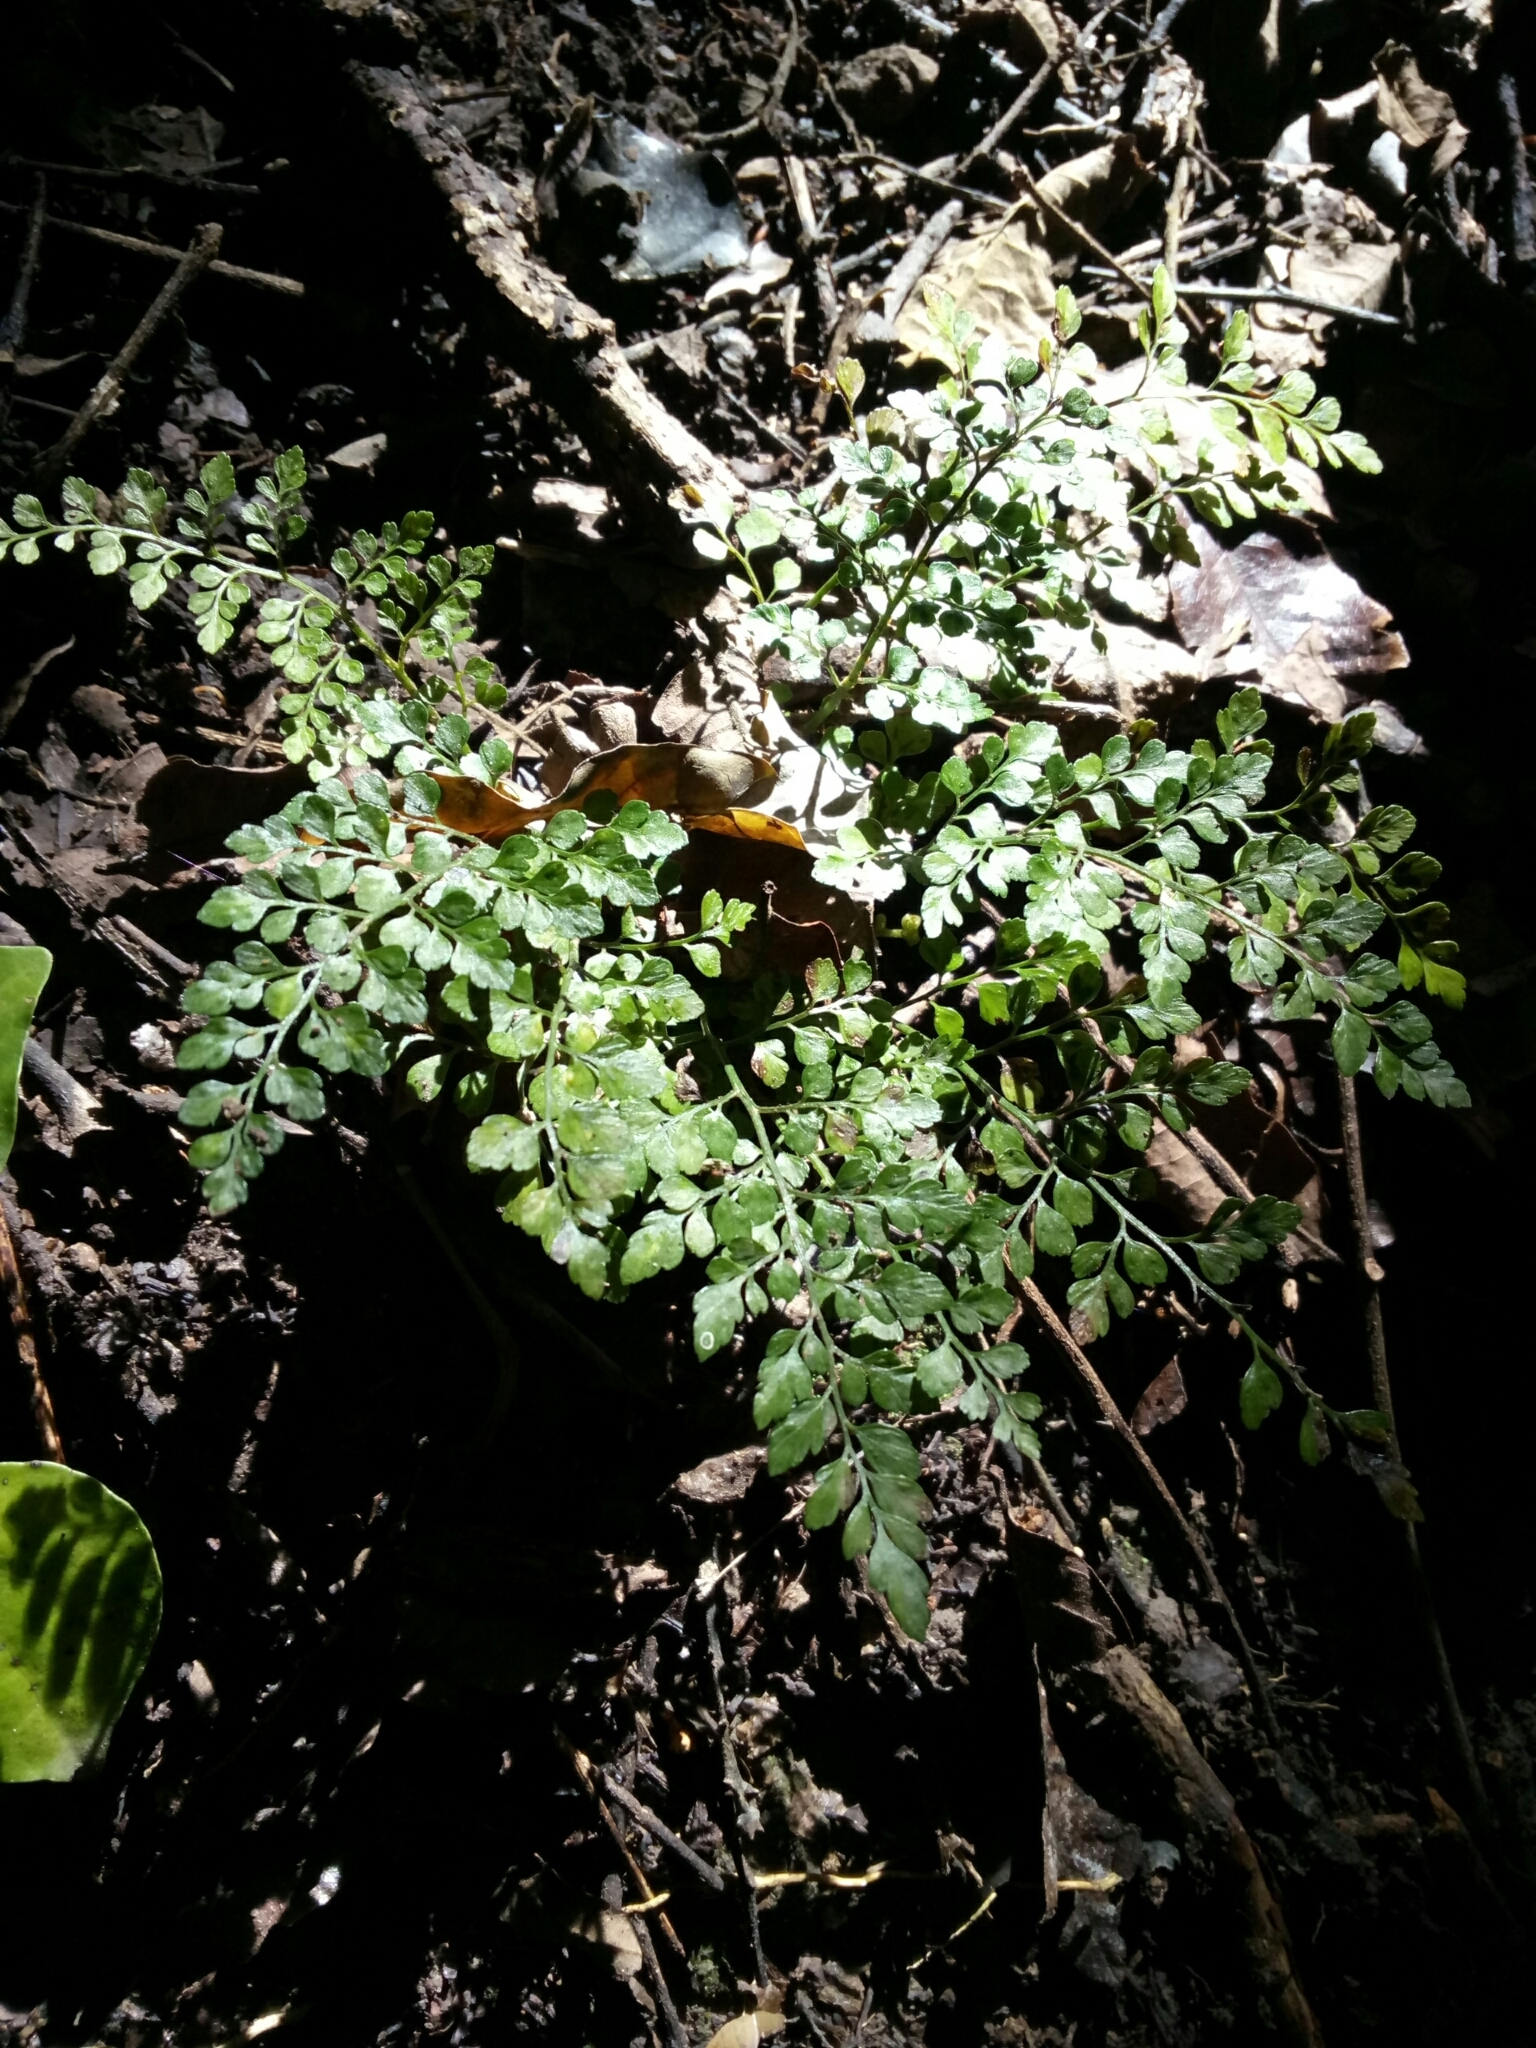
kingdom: Plantae
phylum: Tracheophyta
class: Polypodiopsida
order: Polypodiales
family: Aspleniaceae
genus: Asplenium
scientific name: Asplenium hookerianum
